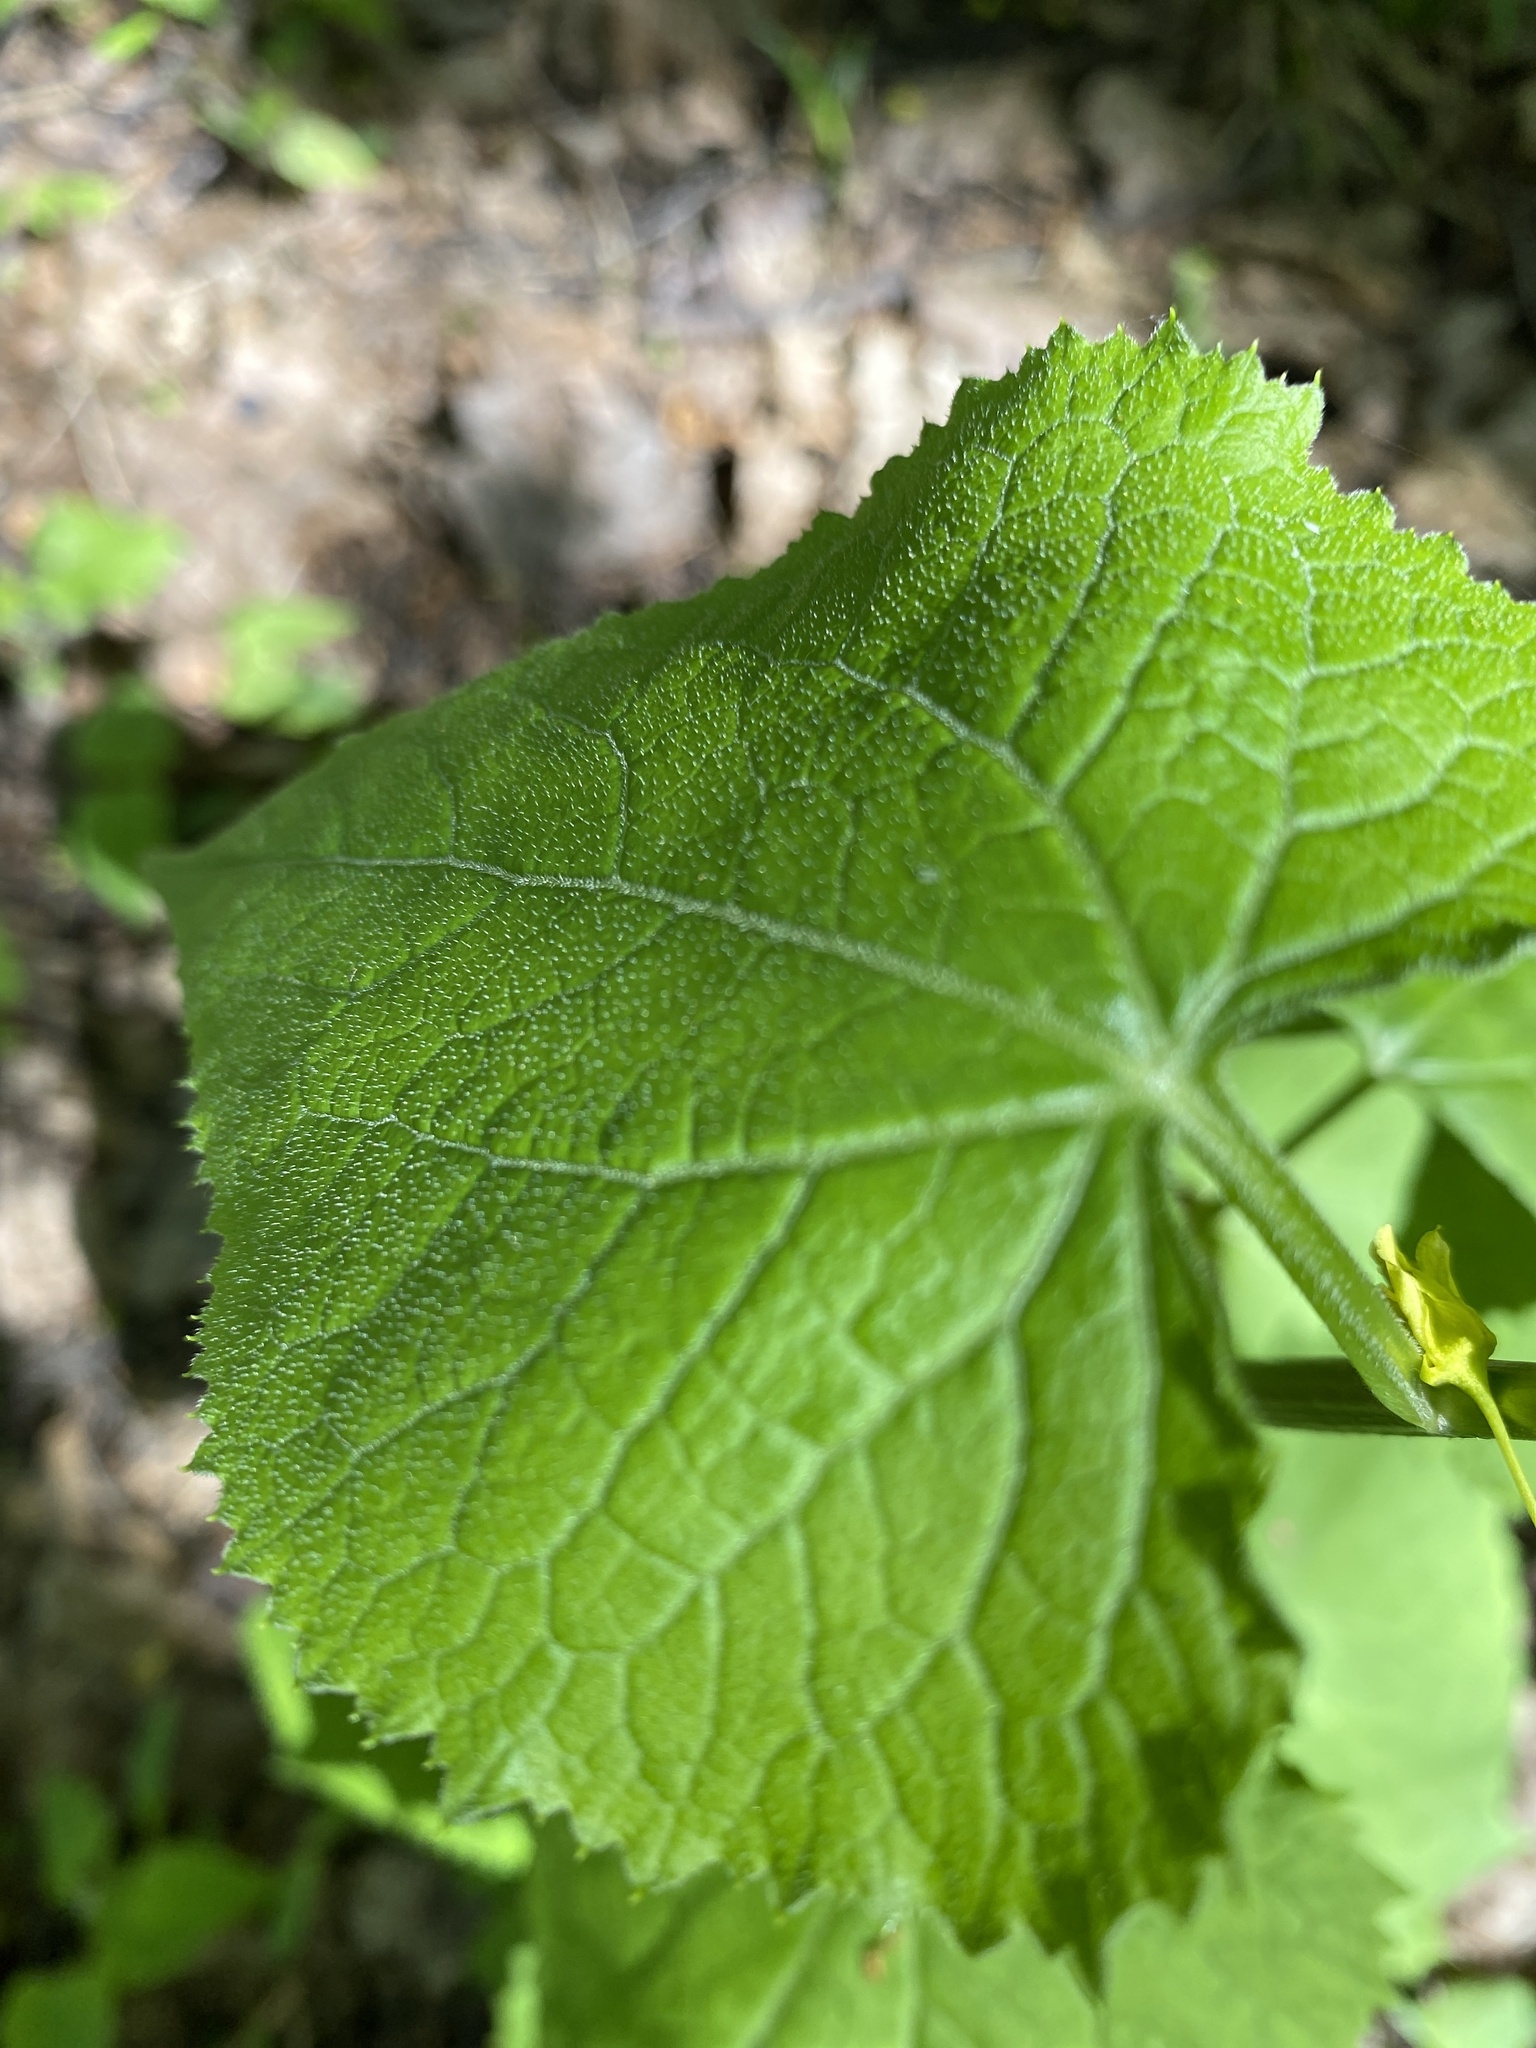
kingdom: Plantae
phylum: Tracheophyta
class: Magnoliopsida
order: Brassicales
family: Brassicaceae
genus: Lunaria
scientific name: Lunaria rediviva
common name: Perennial honesty
